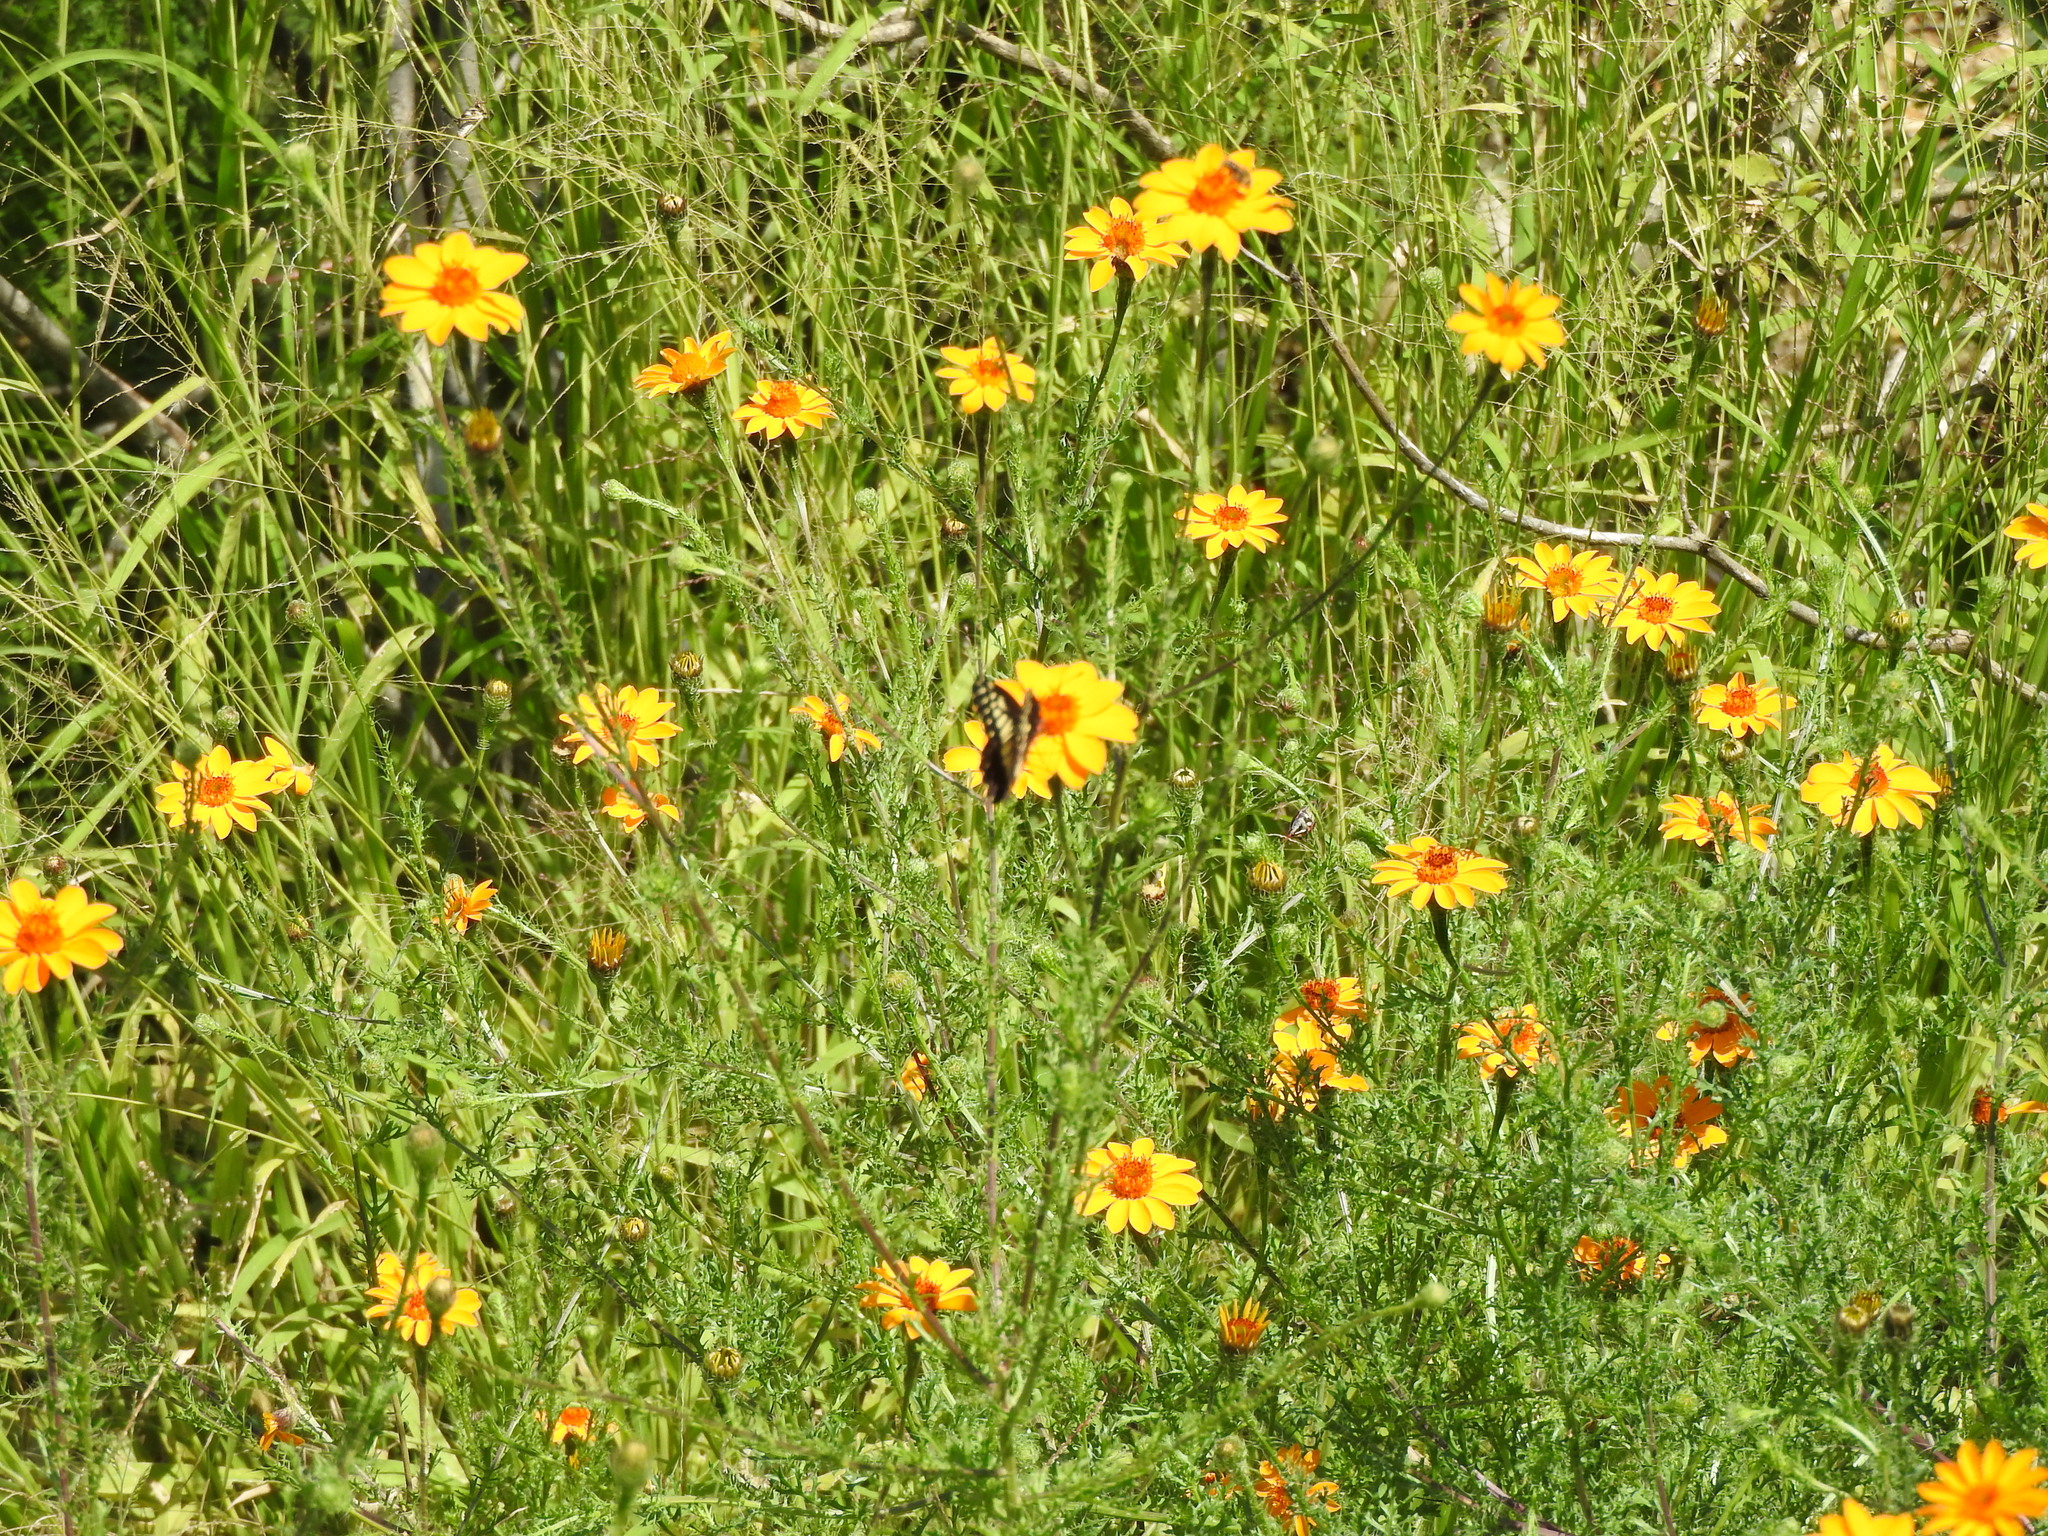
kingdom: Plantae
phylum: Tracheophyta
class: Magnoliopsida
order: Asterales
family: Asteraceae
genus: Adenophyllum
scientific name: Adenophyllum cancellatum
